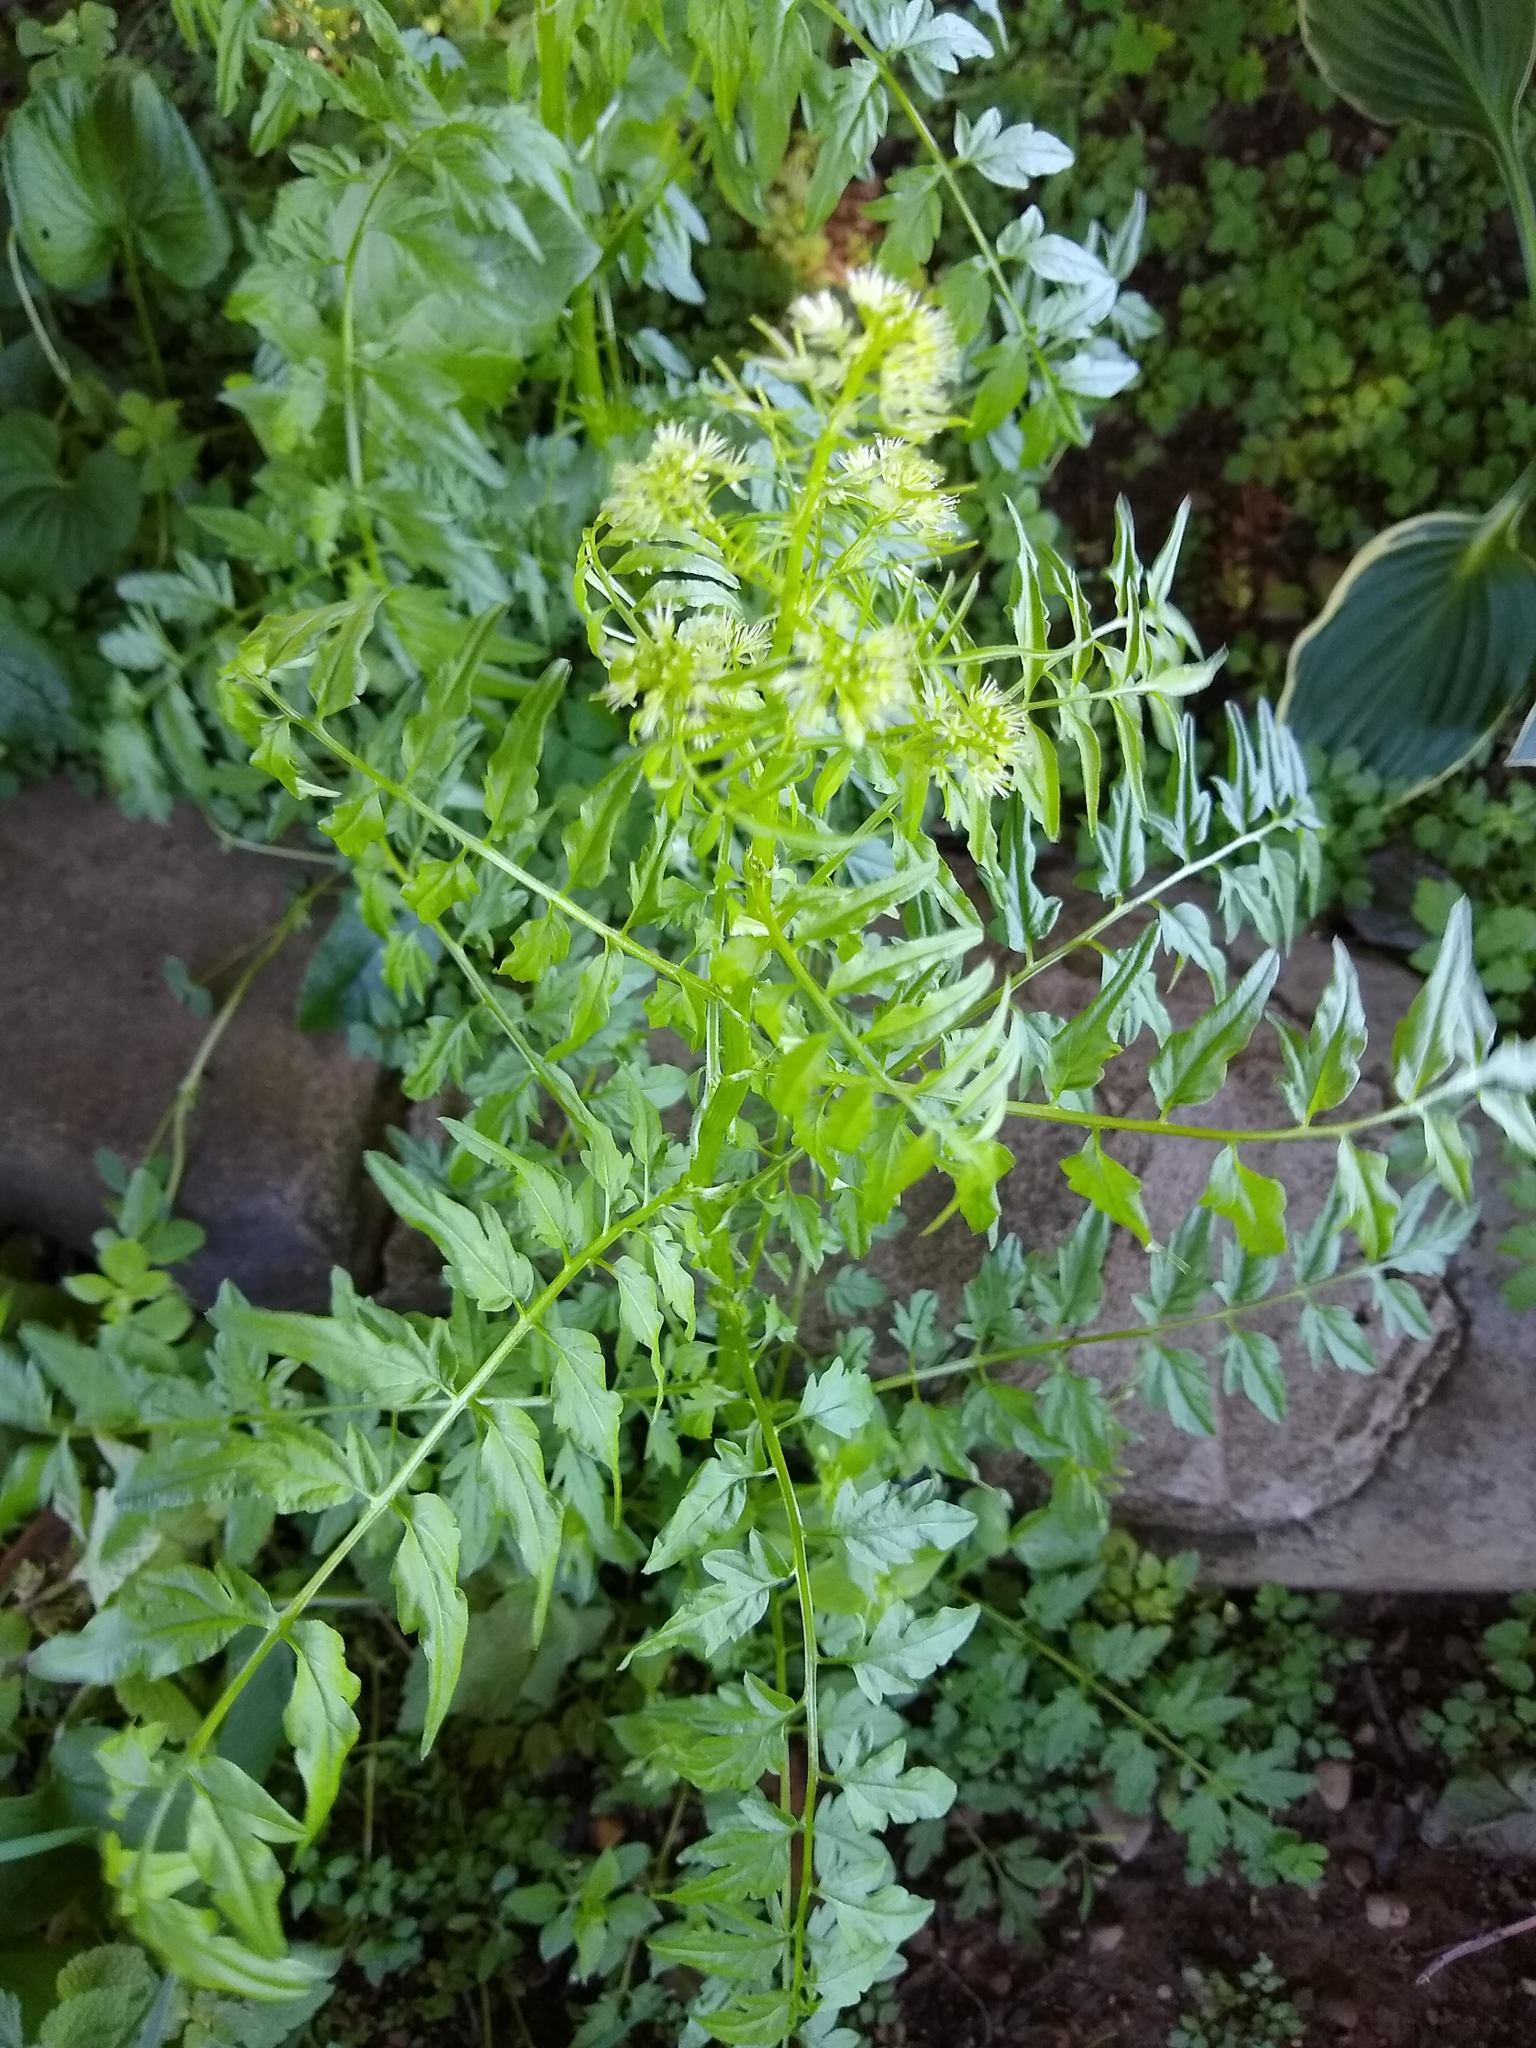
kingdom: Plantae
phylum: Tracheophyta
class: Magnoliopsida
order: Brassicales
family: Brassicaceae
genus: Cardamine
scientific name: Cardamine impatiens
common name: Narrow-leaved bitter-cress
